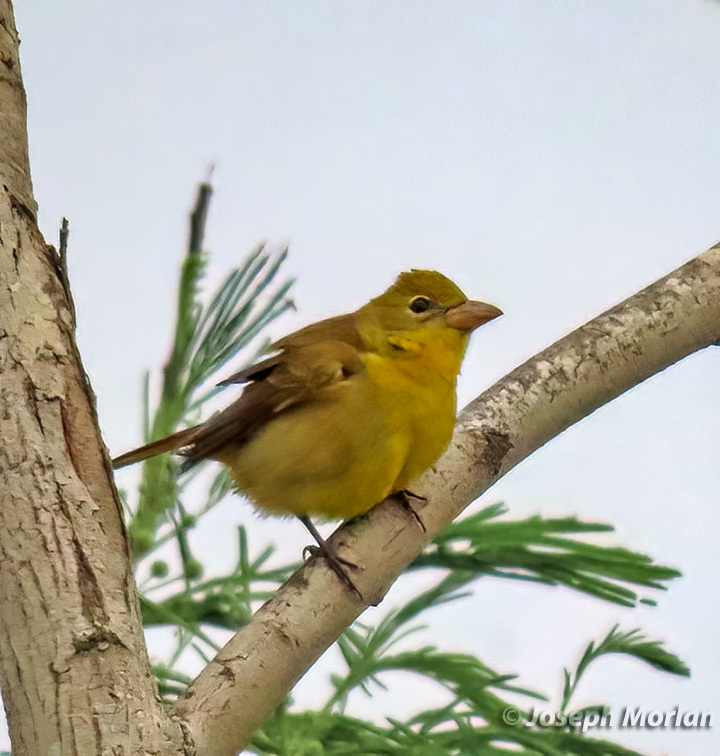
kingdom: Animalia
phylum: Chordata
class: Aves
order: Passeriformes
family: Cardinalidae
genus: Piranga
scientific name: Piranga rubra
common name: Summer tanager
